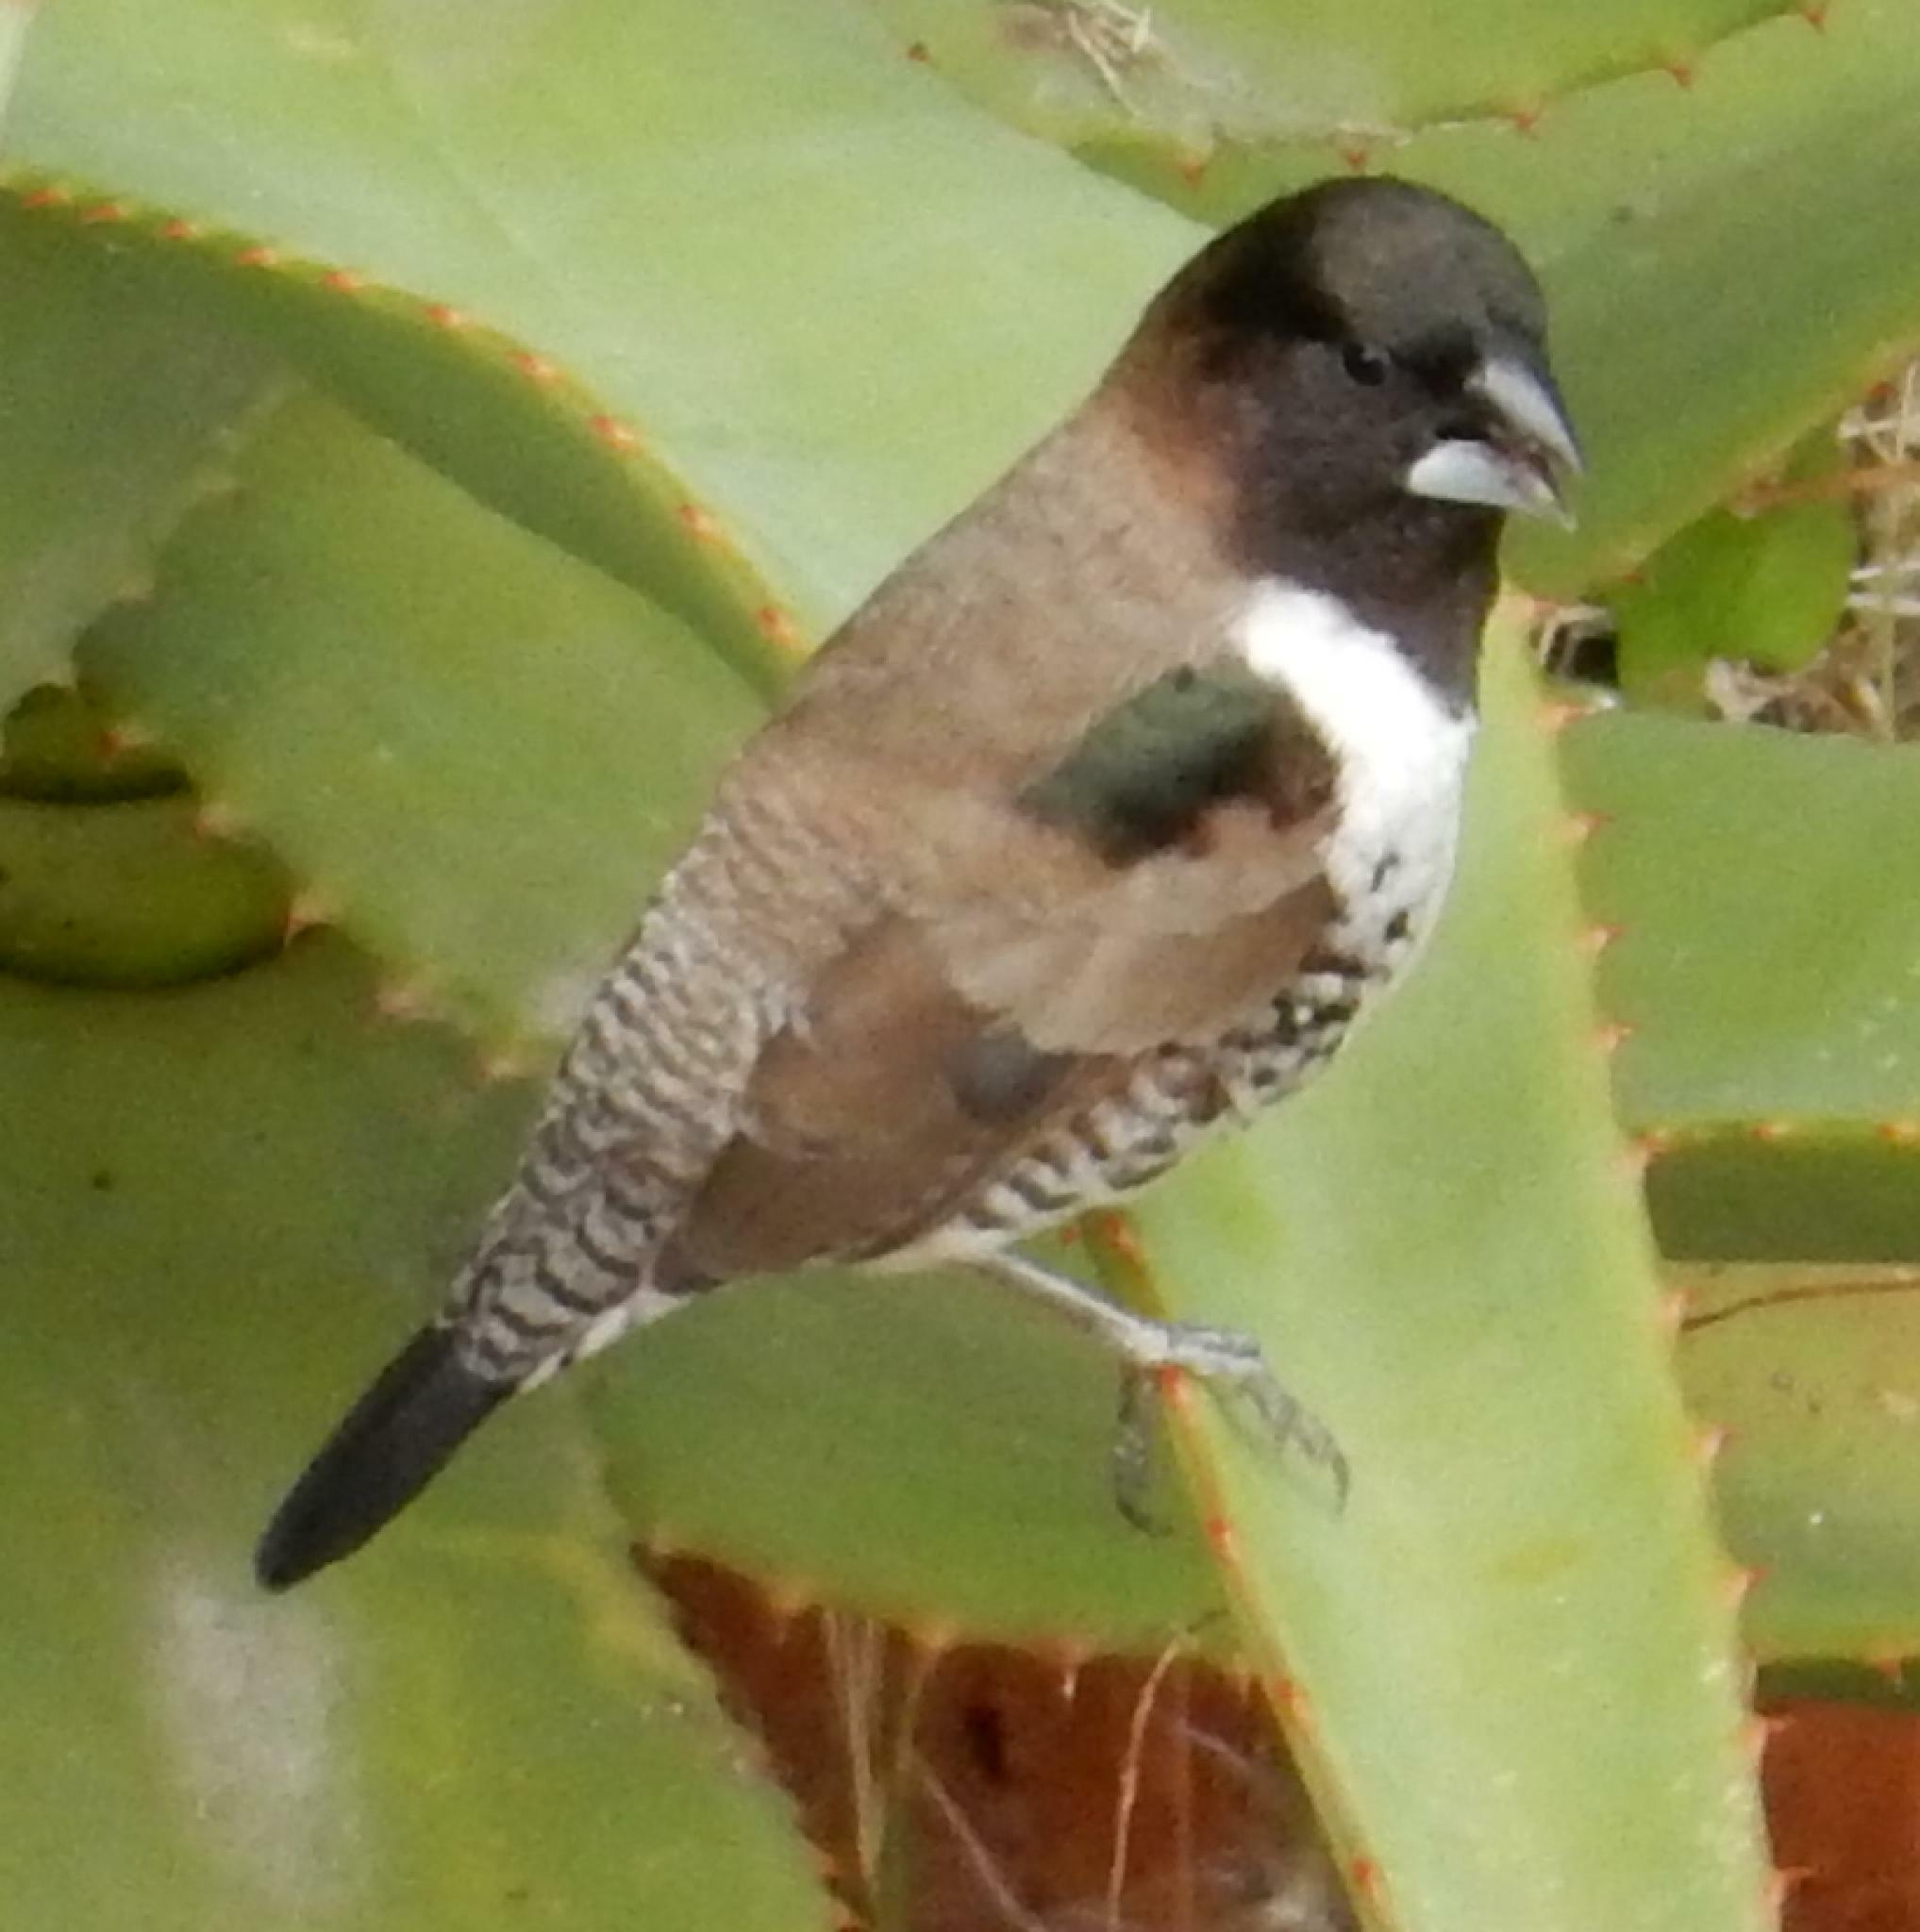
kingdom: Animalia
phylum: Chordata
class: Aves
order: Passeriformes
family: Estrildidae
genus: Lonchura
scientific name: Lonchura cucullata
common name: Bronze mannikin
